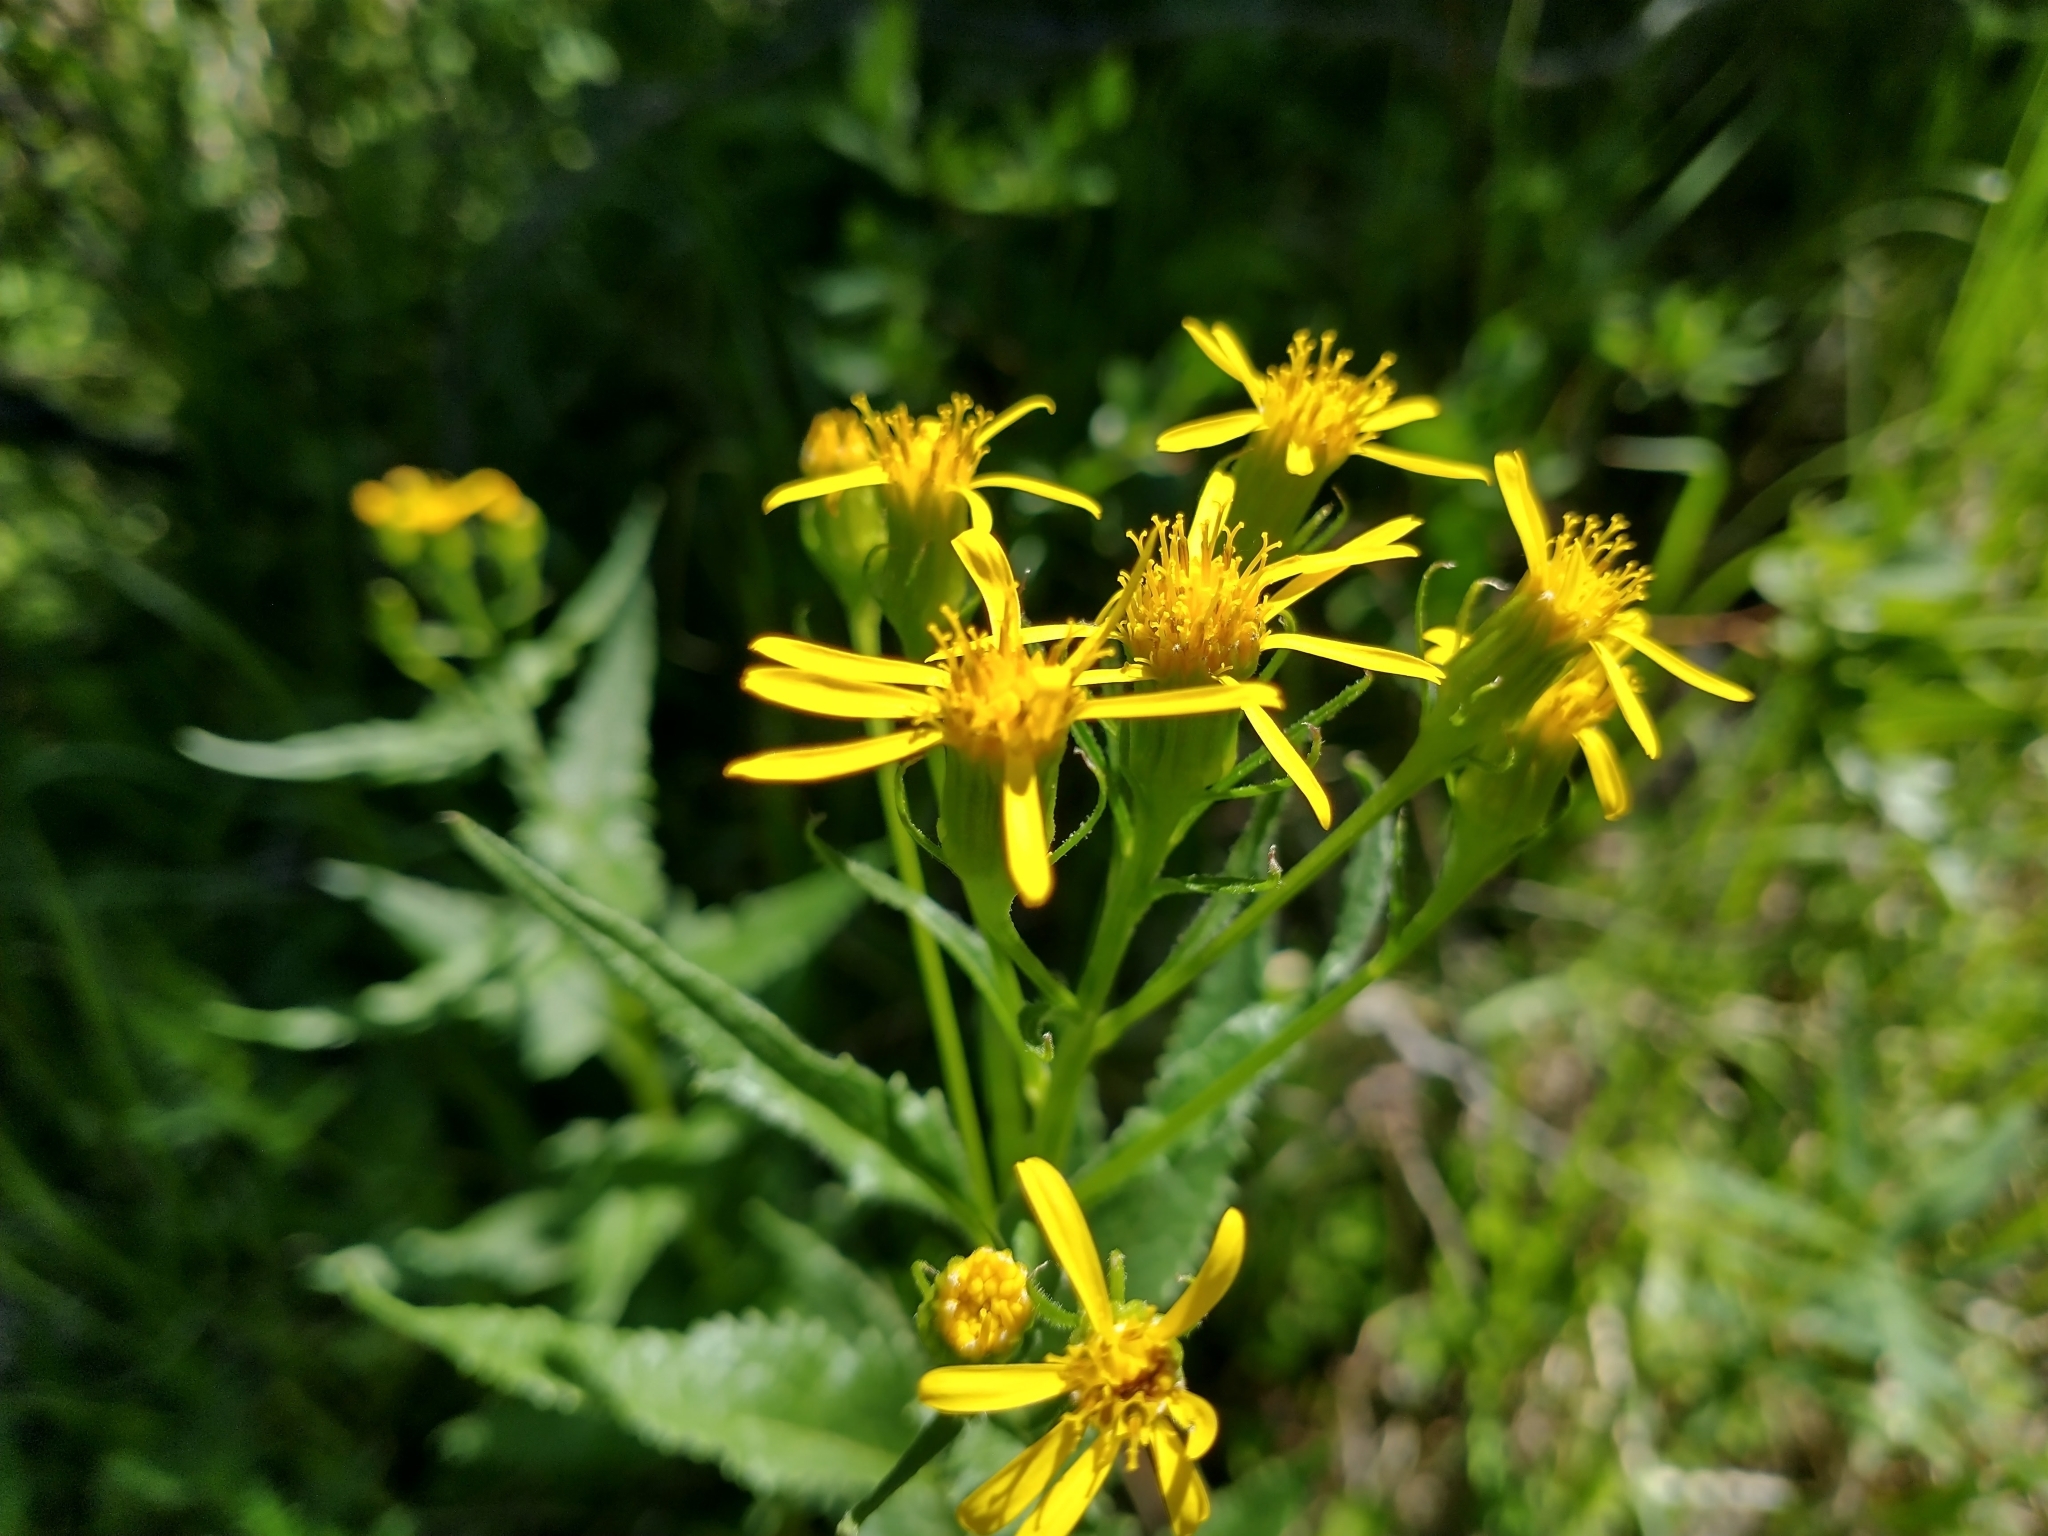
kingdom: Plantae
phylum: Tracheophyta
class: Magnoliopsida
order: Asterales
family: Asteraceae
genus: Senecio
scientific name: Senecio triangularis
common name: Arrowleaf butterweed
